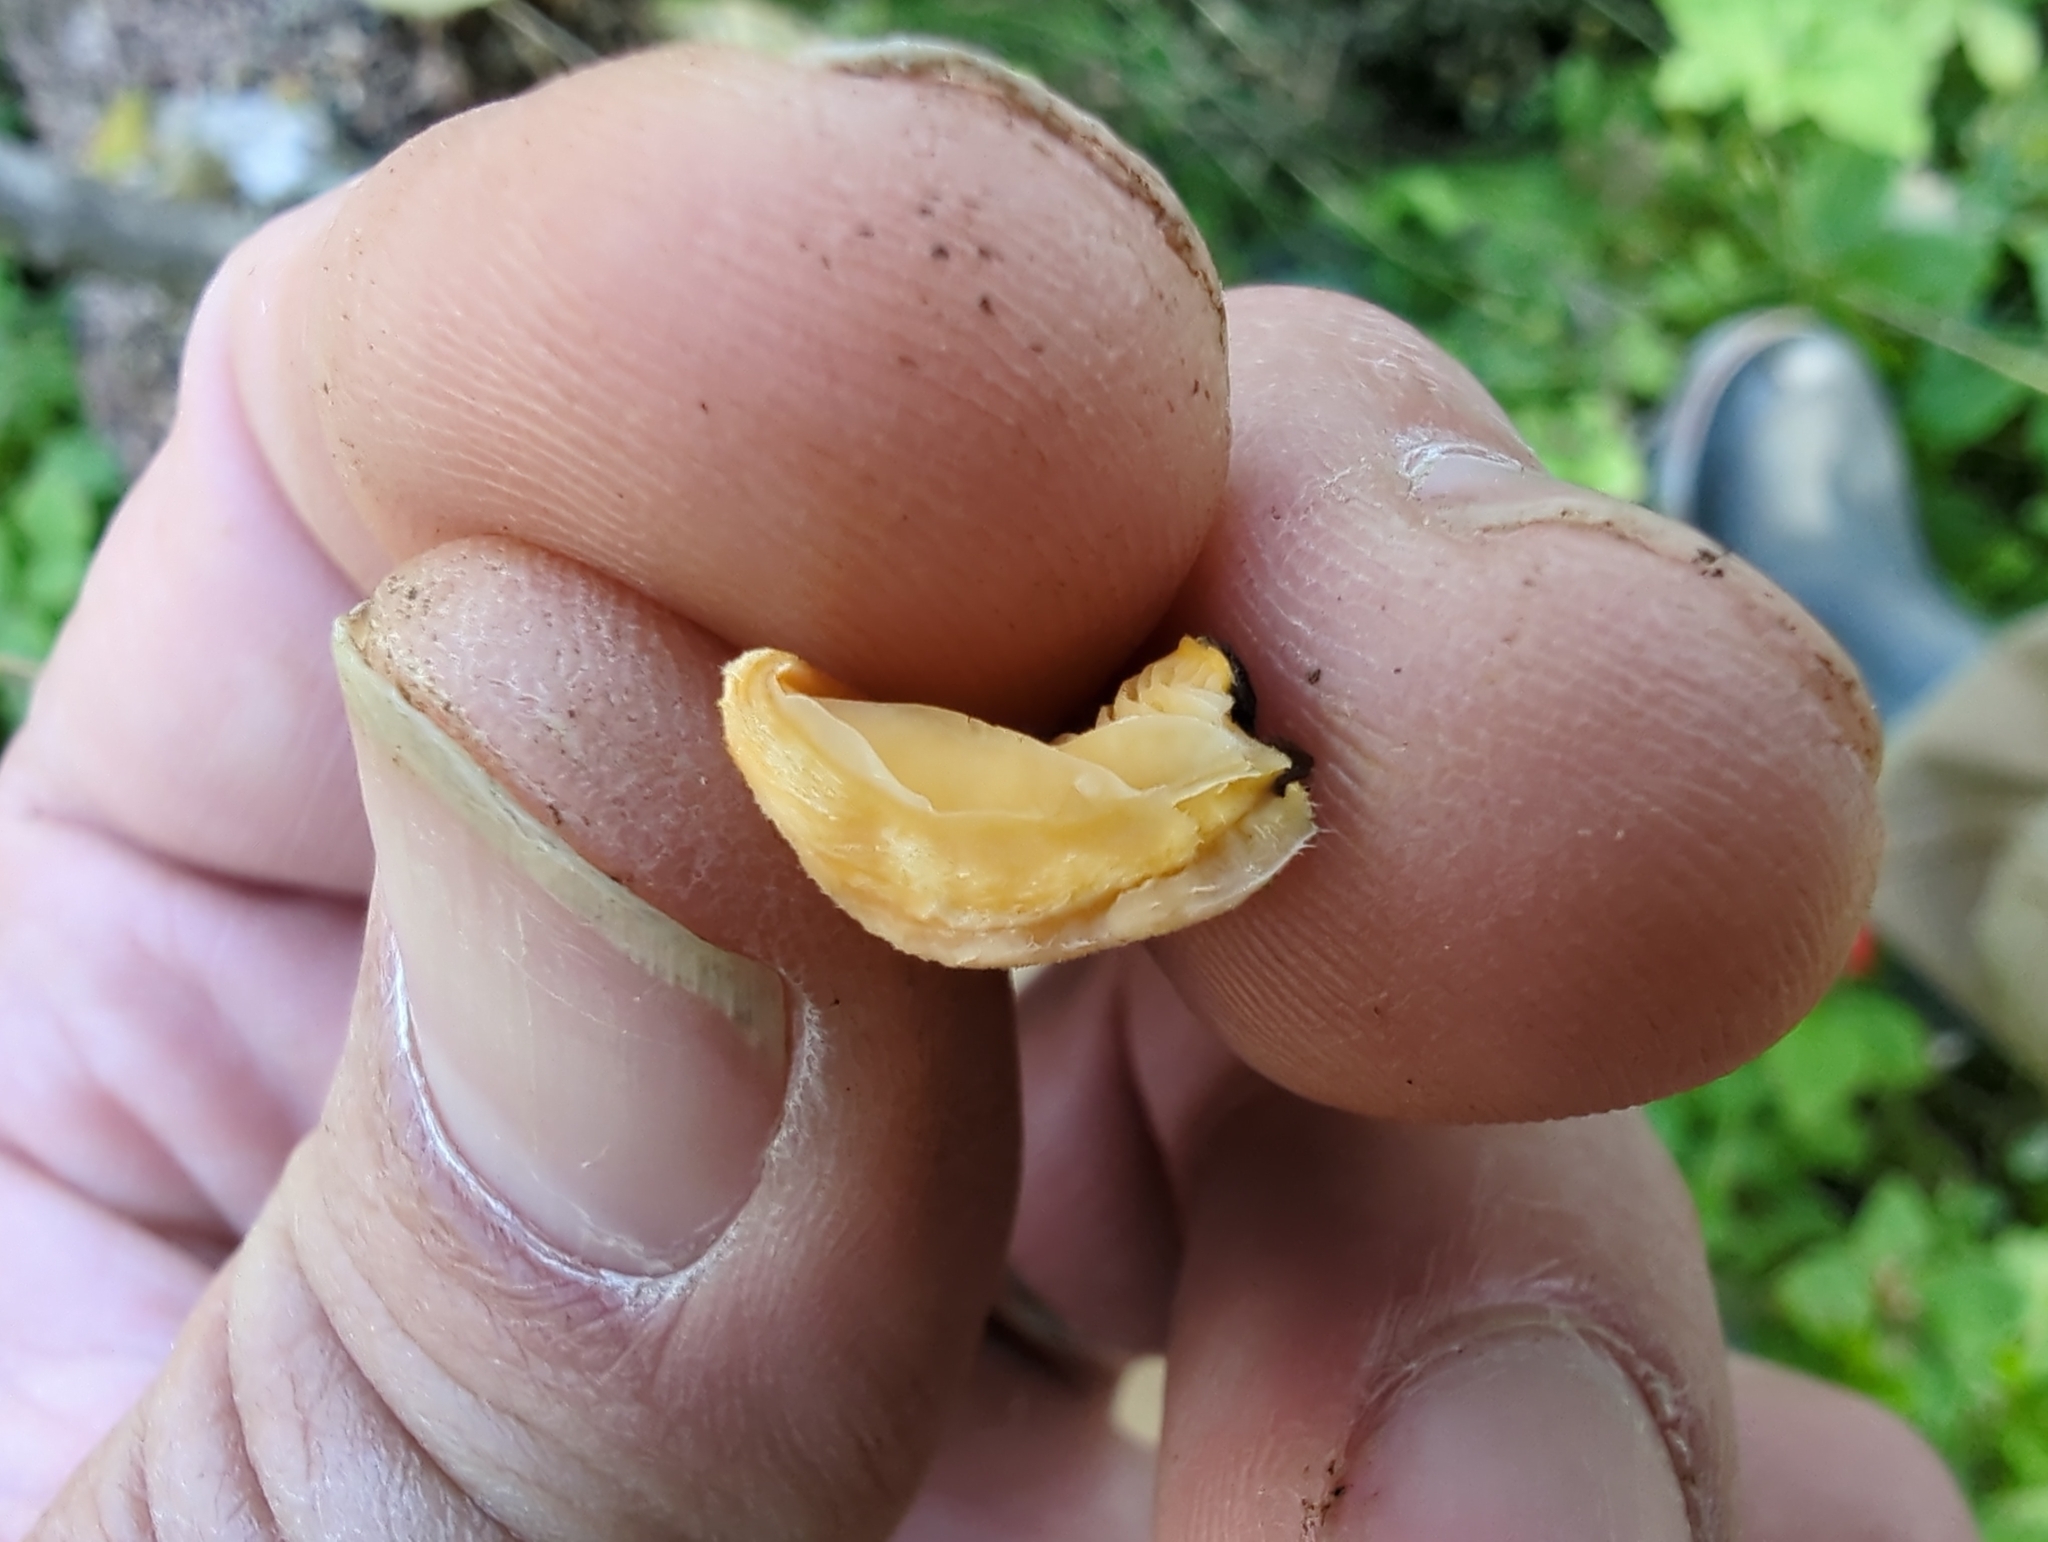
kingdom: Fungi
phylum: Basidiomycota
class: Agaricomycetes
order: Agaricales
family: Phyllotopsidaceae
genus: Phyllotopsis
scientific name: Phyllotopsis nidulans
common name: Orange mock oyster
